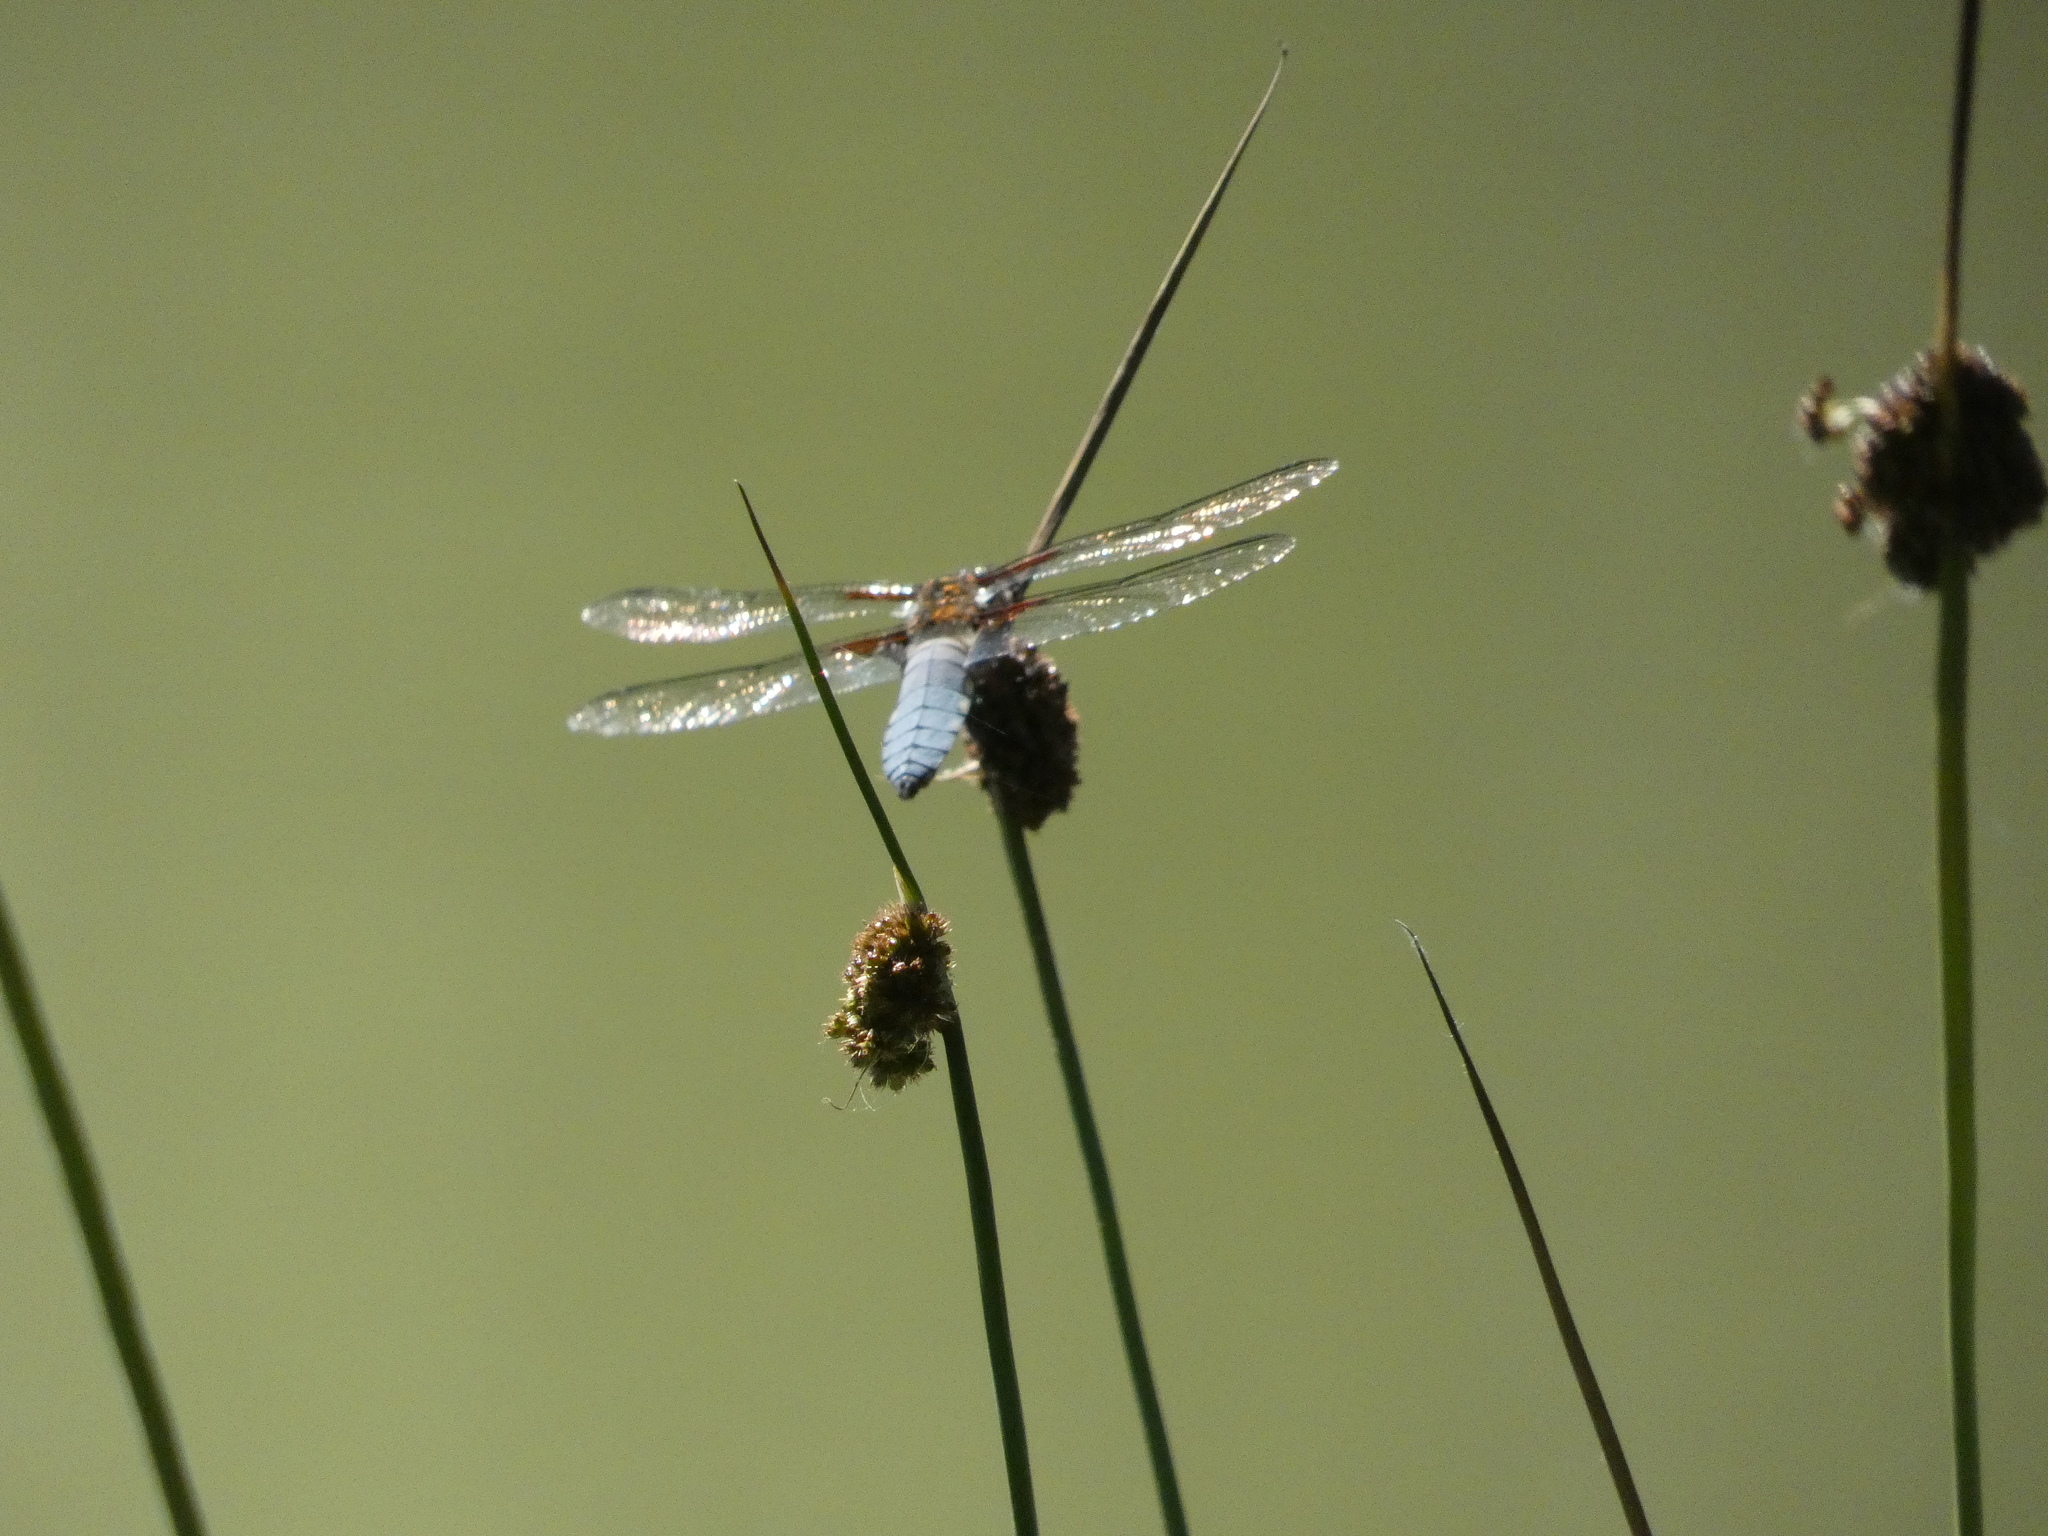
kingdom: Animalia
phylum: Arthropoda
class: Insecta
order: Odonata
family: Libellulidae
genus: Libellula
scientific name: Libellula depressa
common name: Broad-bodied chaser
